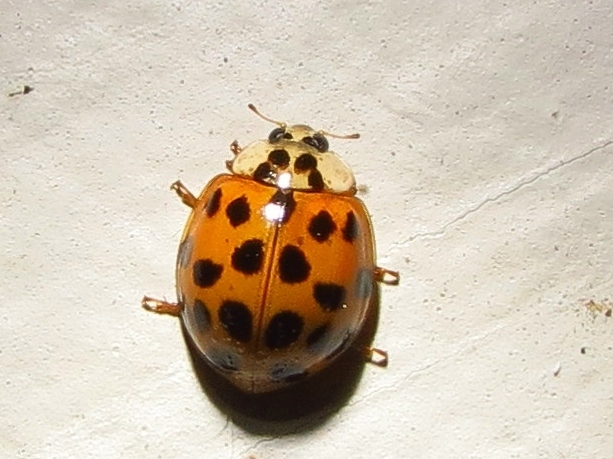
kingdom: Animalia
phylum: Arthropoda
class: Insecta
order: Coleoptera
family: Coccinellidae
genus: Harmonia
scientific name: Harmonia axyridis
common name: Harlequin ladybird
